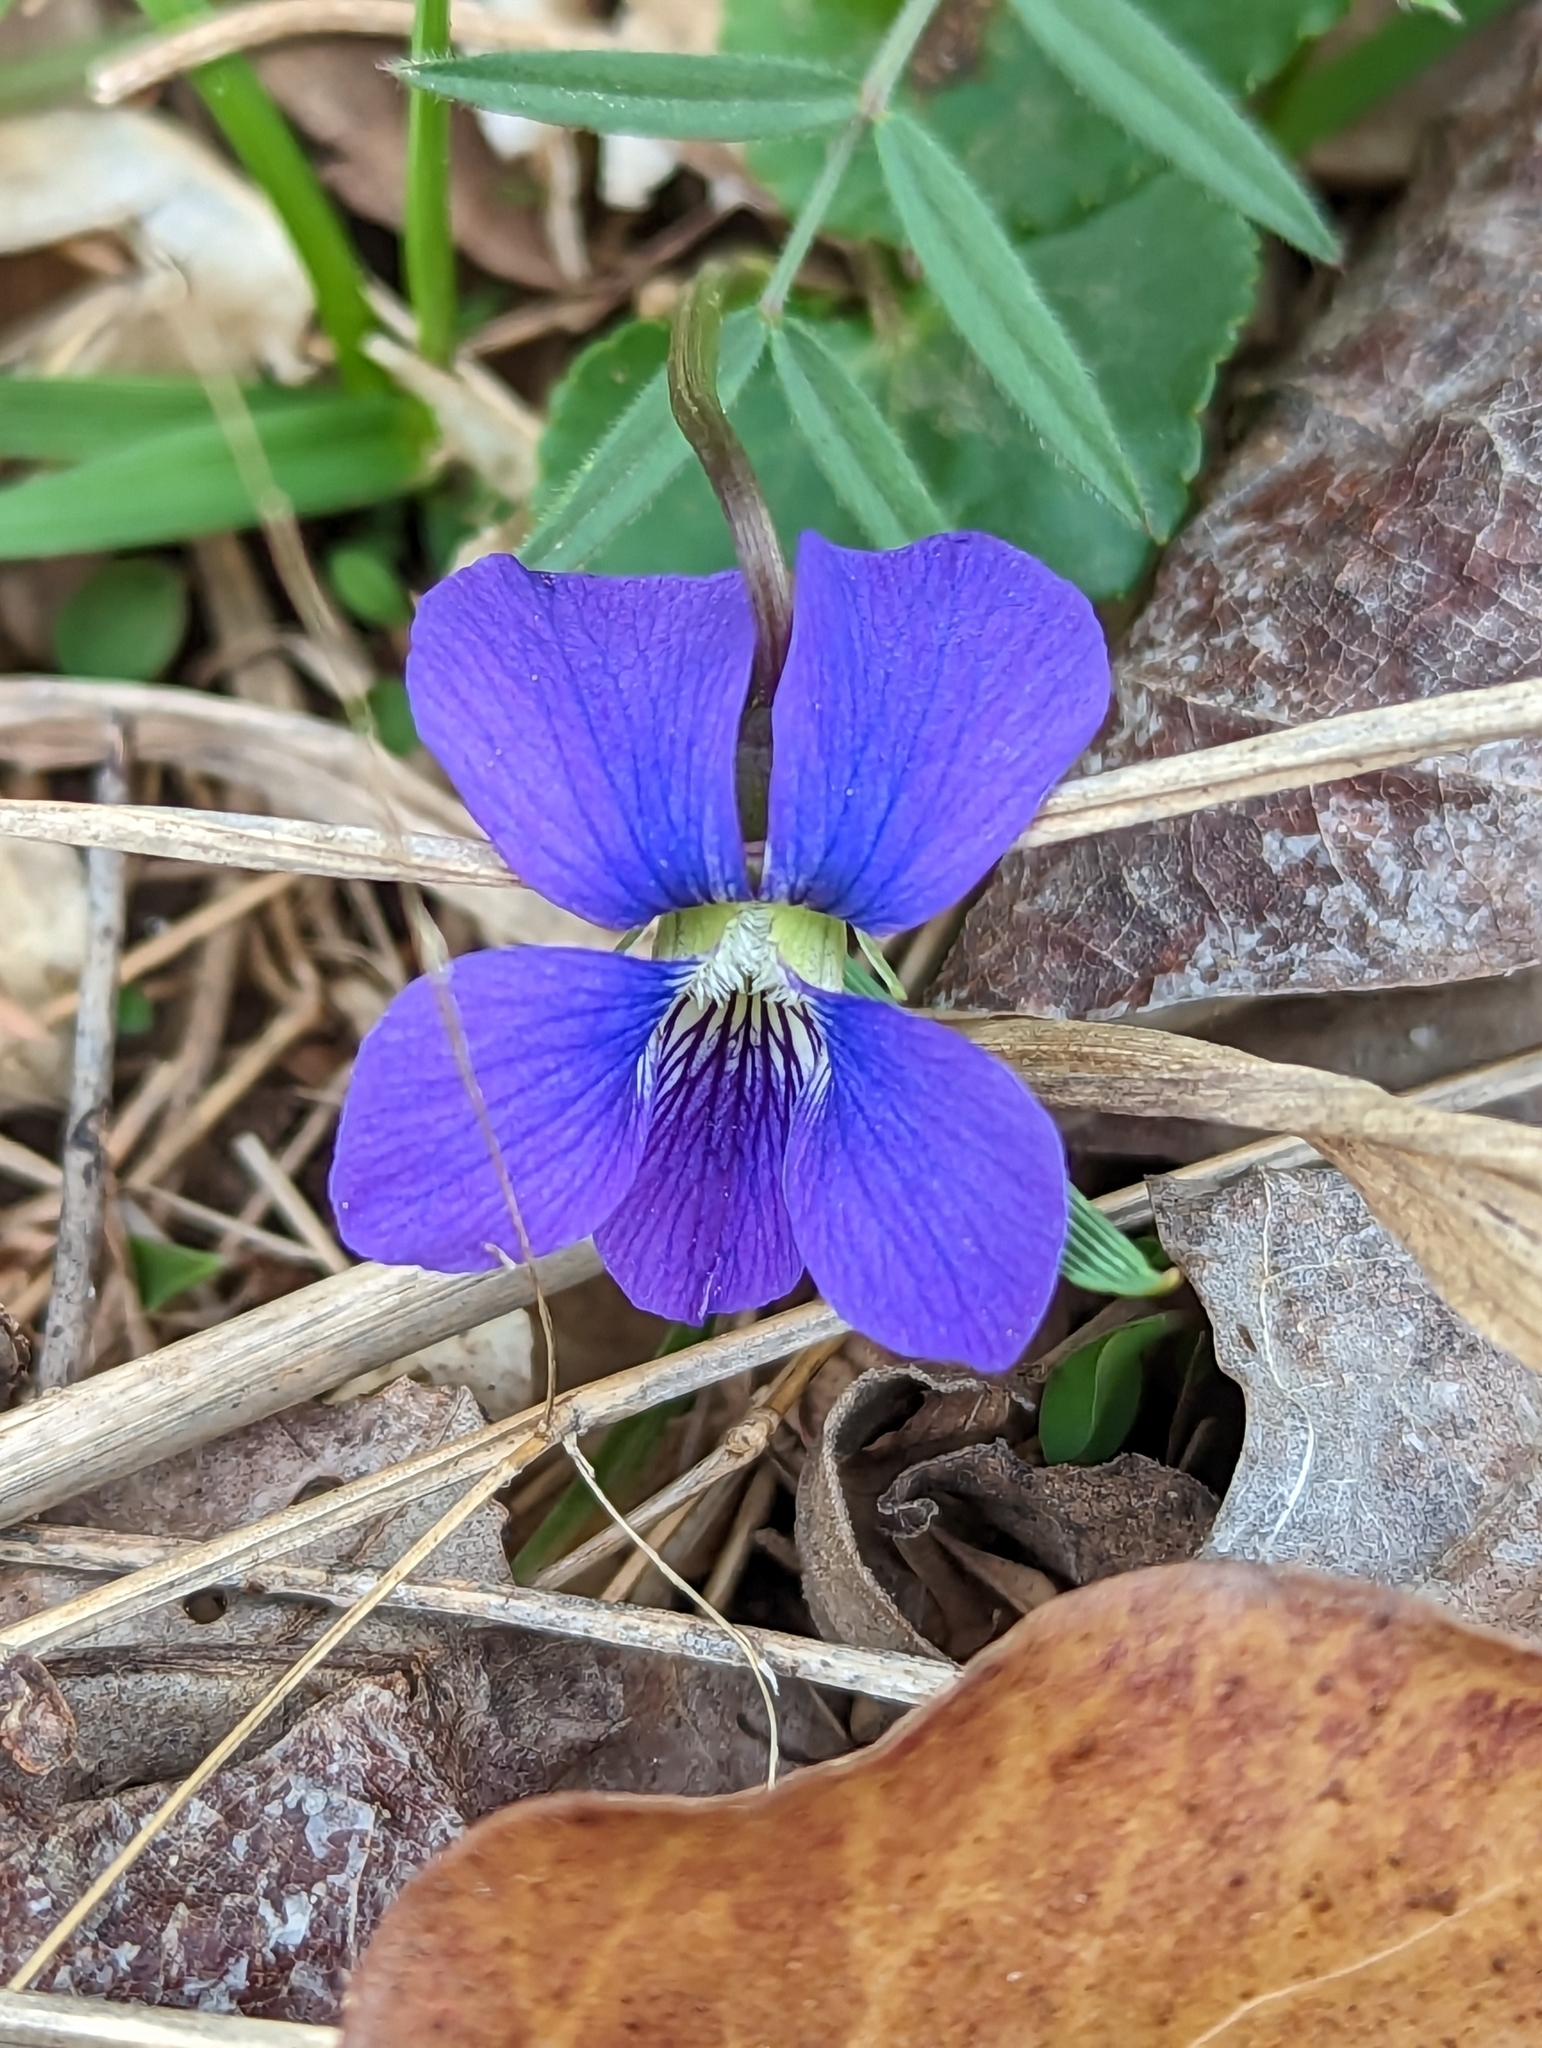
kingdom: Plantae
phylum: Tracheophyta
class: Magnoliopsida
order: Malpighiales
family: Violaceae
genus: Viola
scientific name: Viola sororia
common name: Dooryard violet
